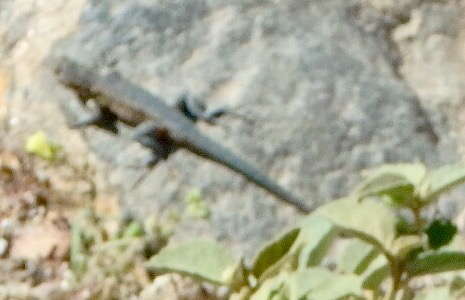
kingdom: Animalia
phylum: Chordata
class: Squamata
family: Phrynosomatidae
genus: Uta
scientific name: Uta stansburiana
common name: Side-blotched lizard
